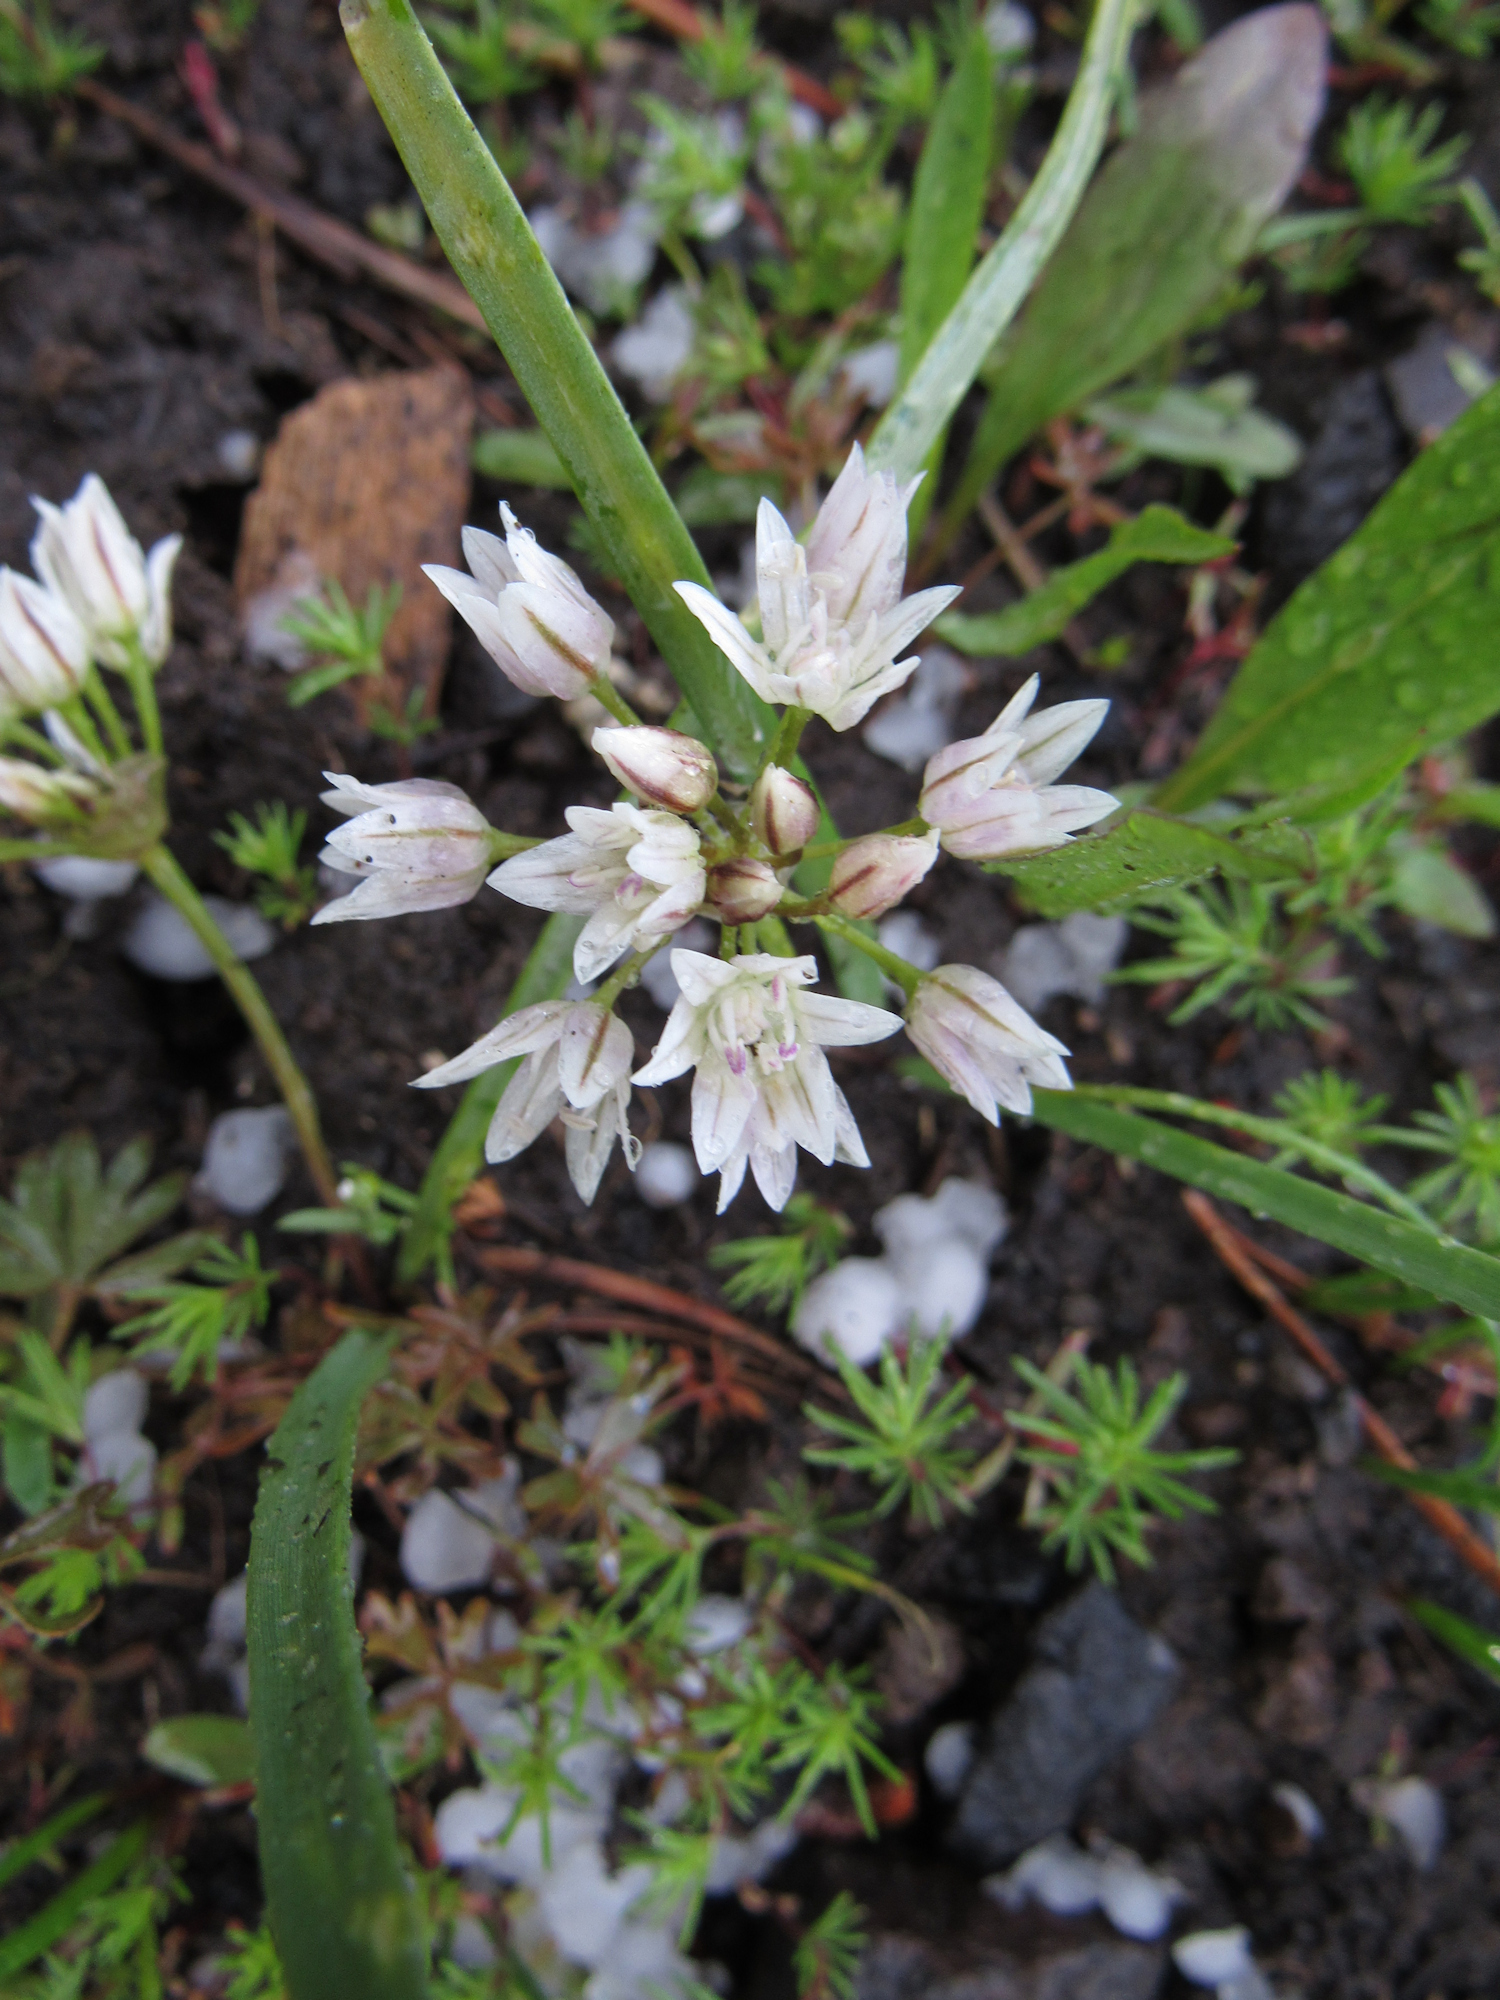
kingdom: Plantae
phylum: Tracheophyta
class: Liliopsida
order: Asparagales
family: Amaryllidaceae
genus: Allium
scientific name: Allium brandegeei
